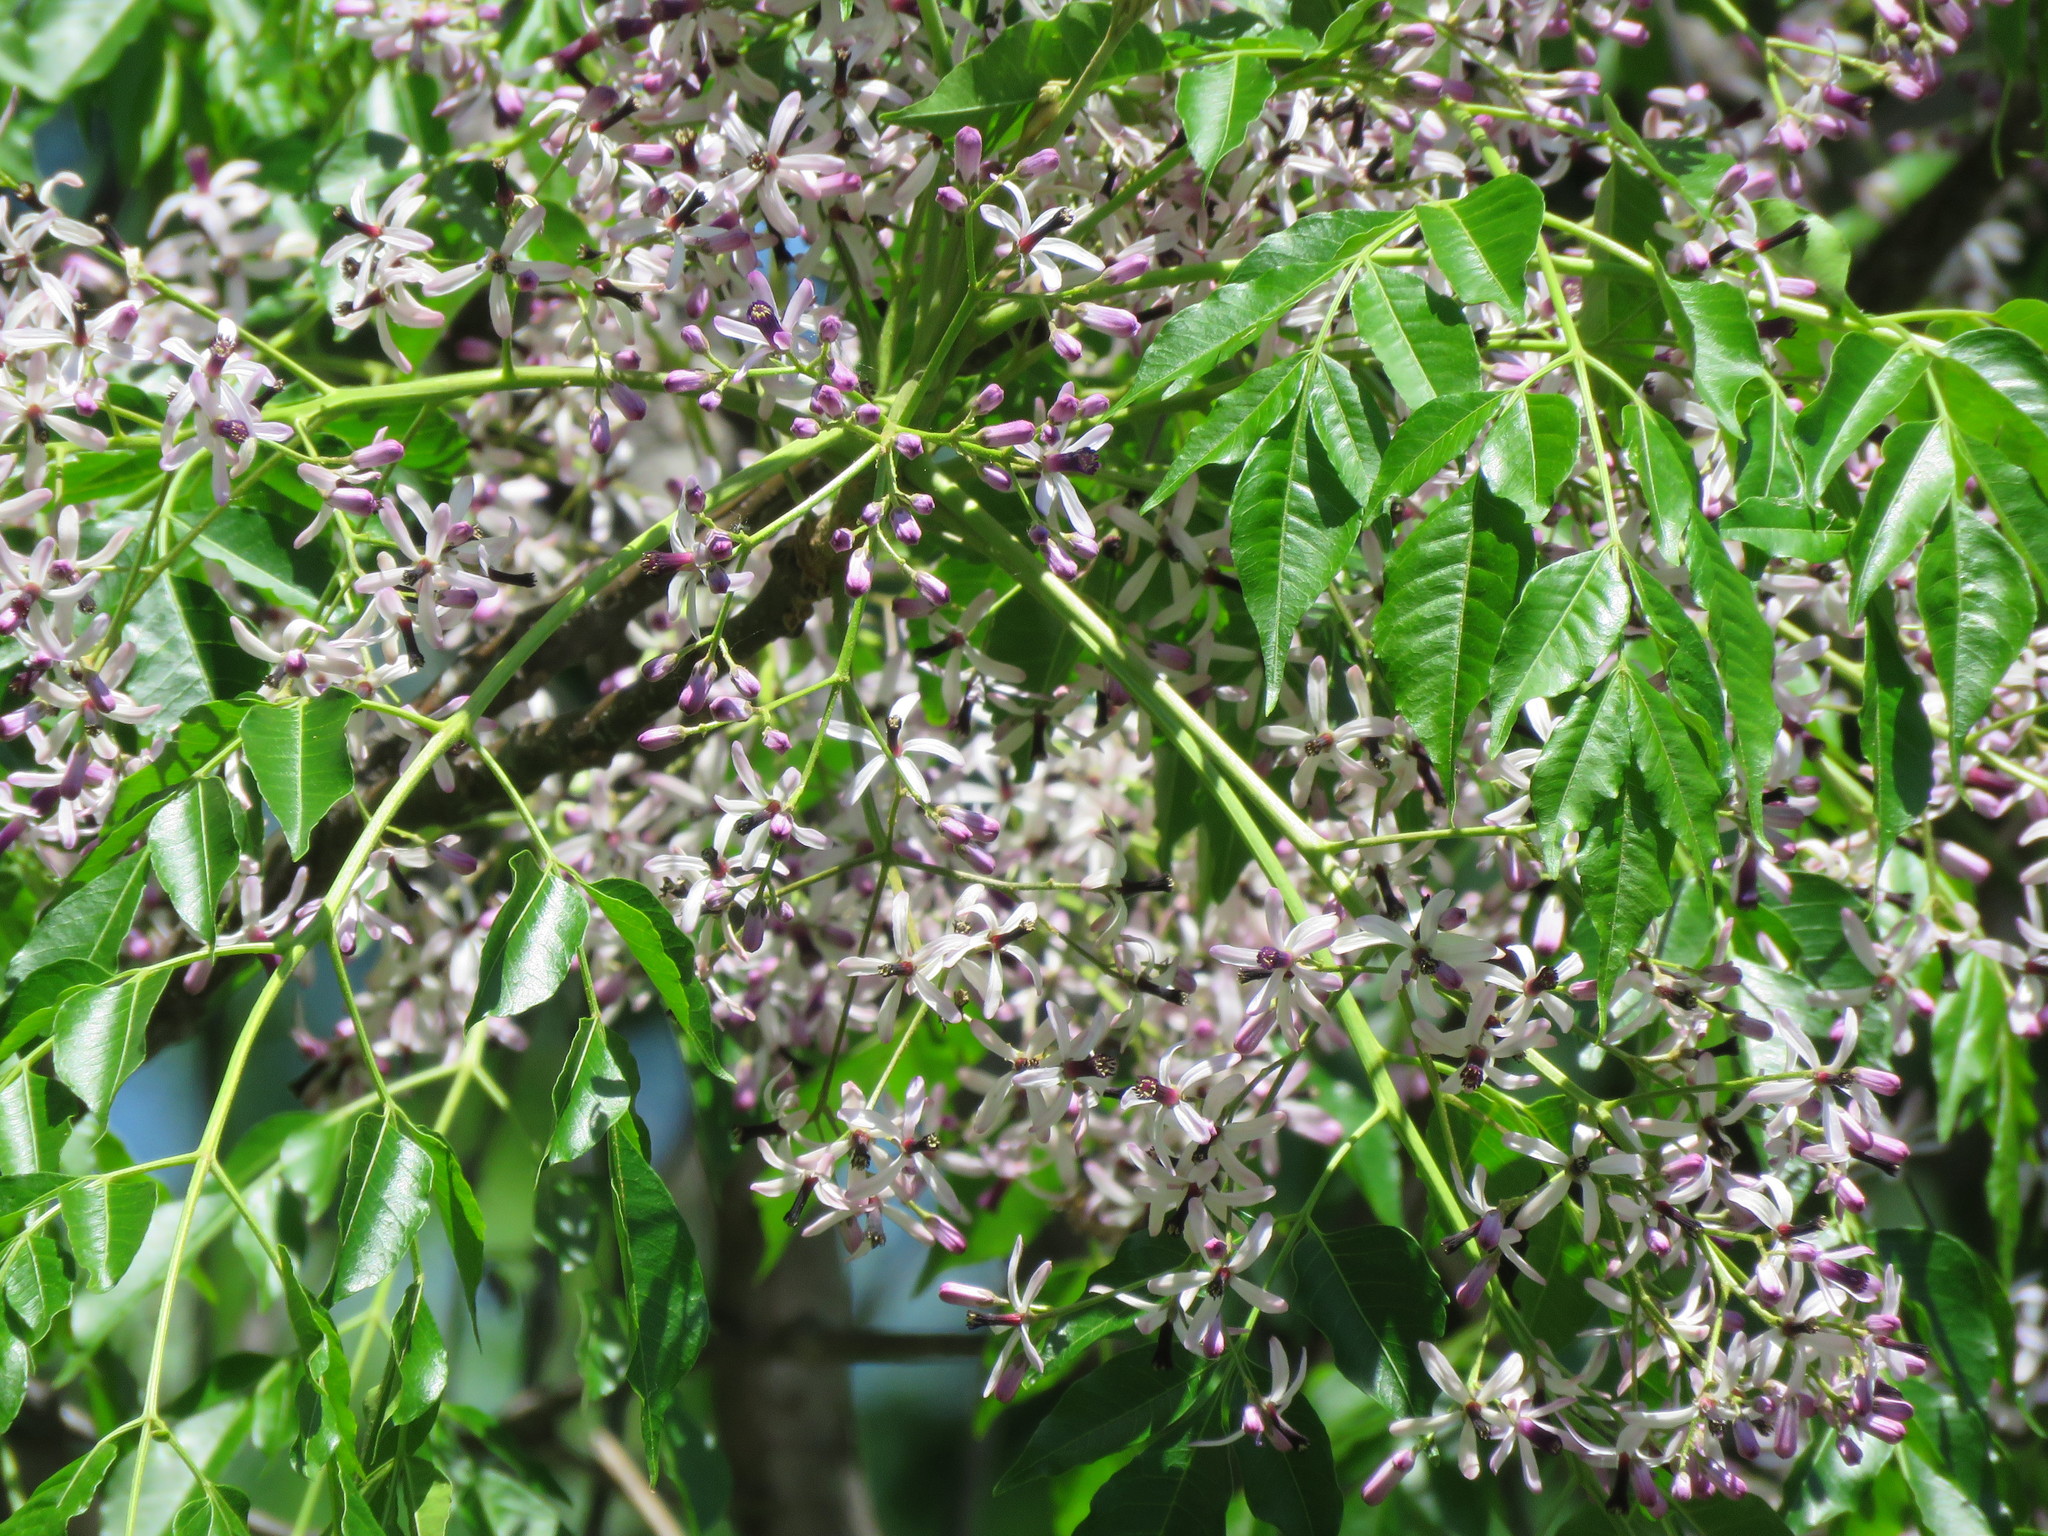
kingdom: Plantae
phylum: Tracheophyta
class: Magnoliopsida
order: Sapindales
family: Meliaceae
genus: Melia
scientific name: Melia azedarach
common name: Chinaberrytree
